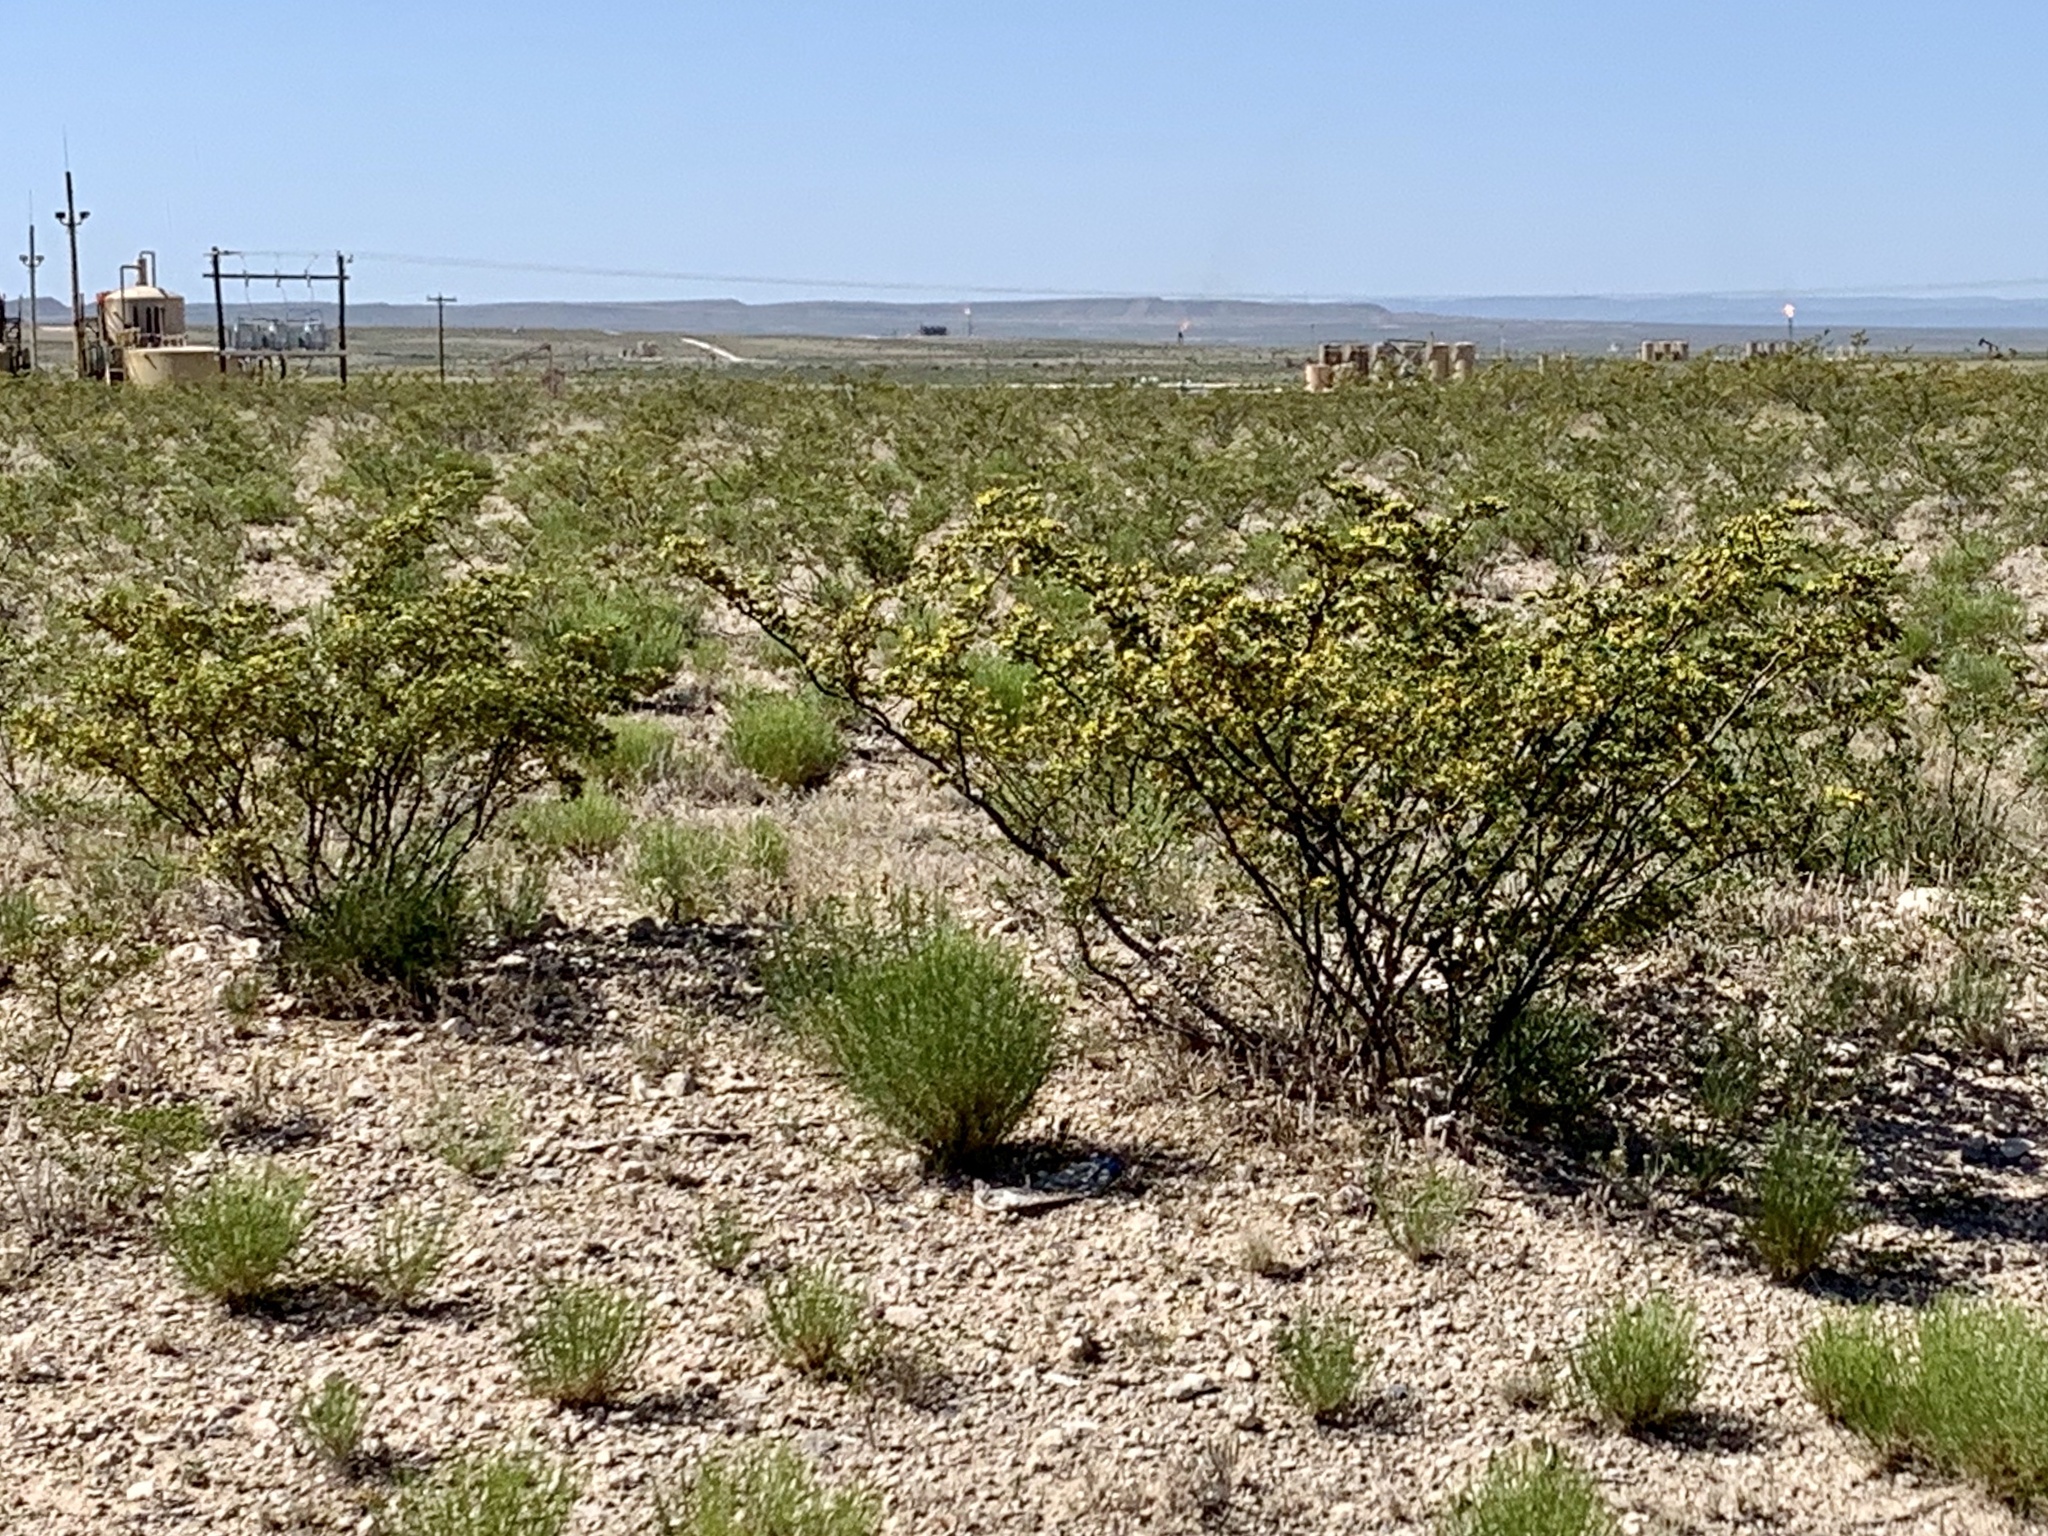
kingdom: Plantae
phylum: Tracheophyta
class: Magnoliopsida
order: Zygophyllales
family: Zygophyllaceae
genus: Larrea
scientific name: Larrea tridentata
